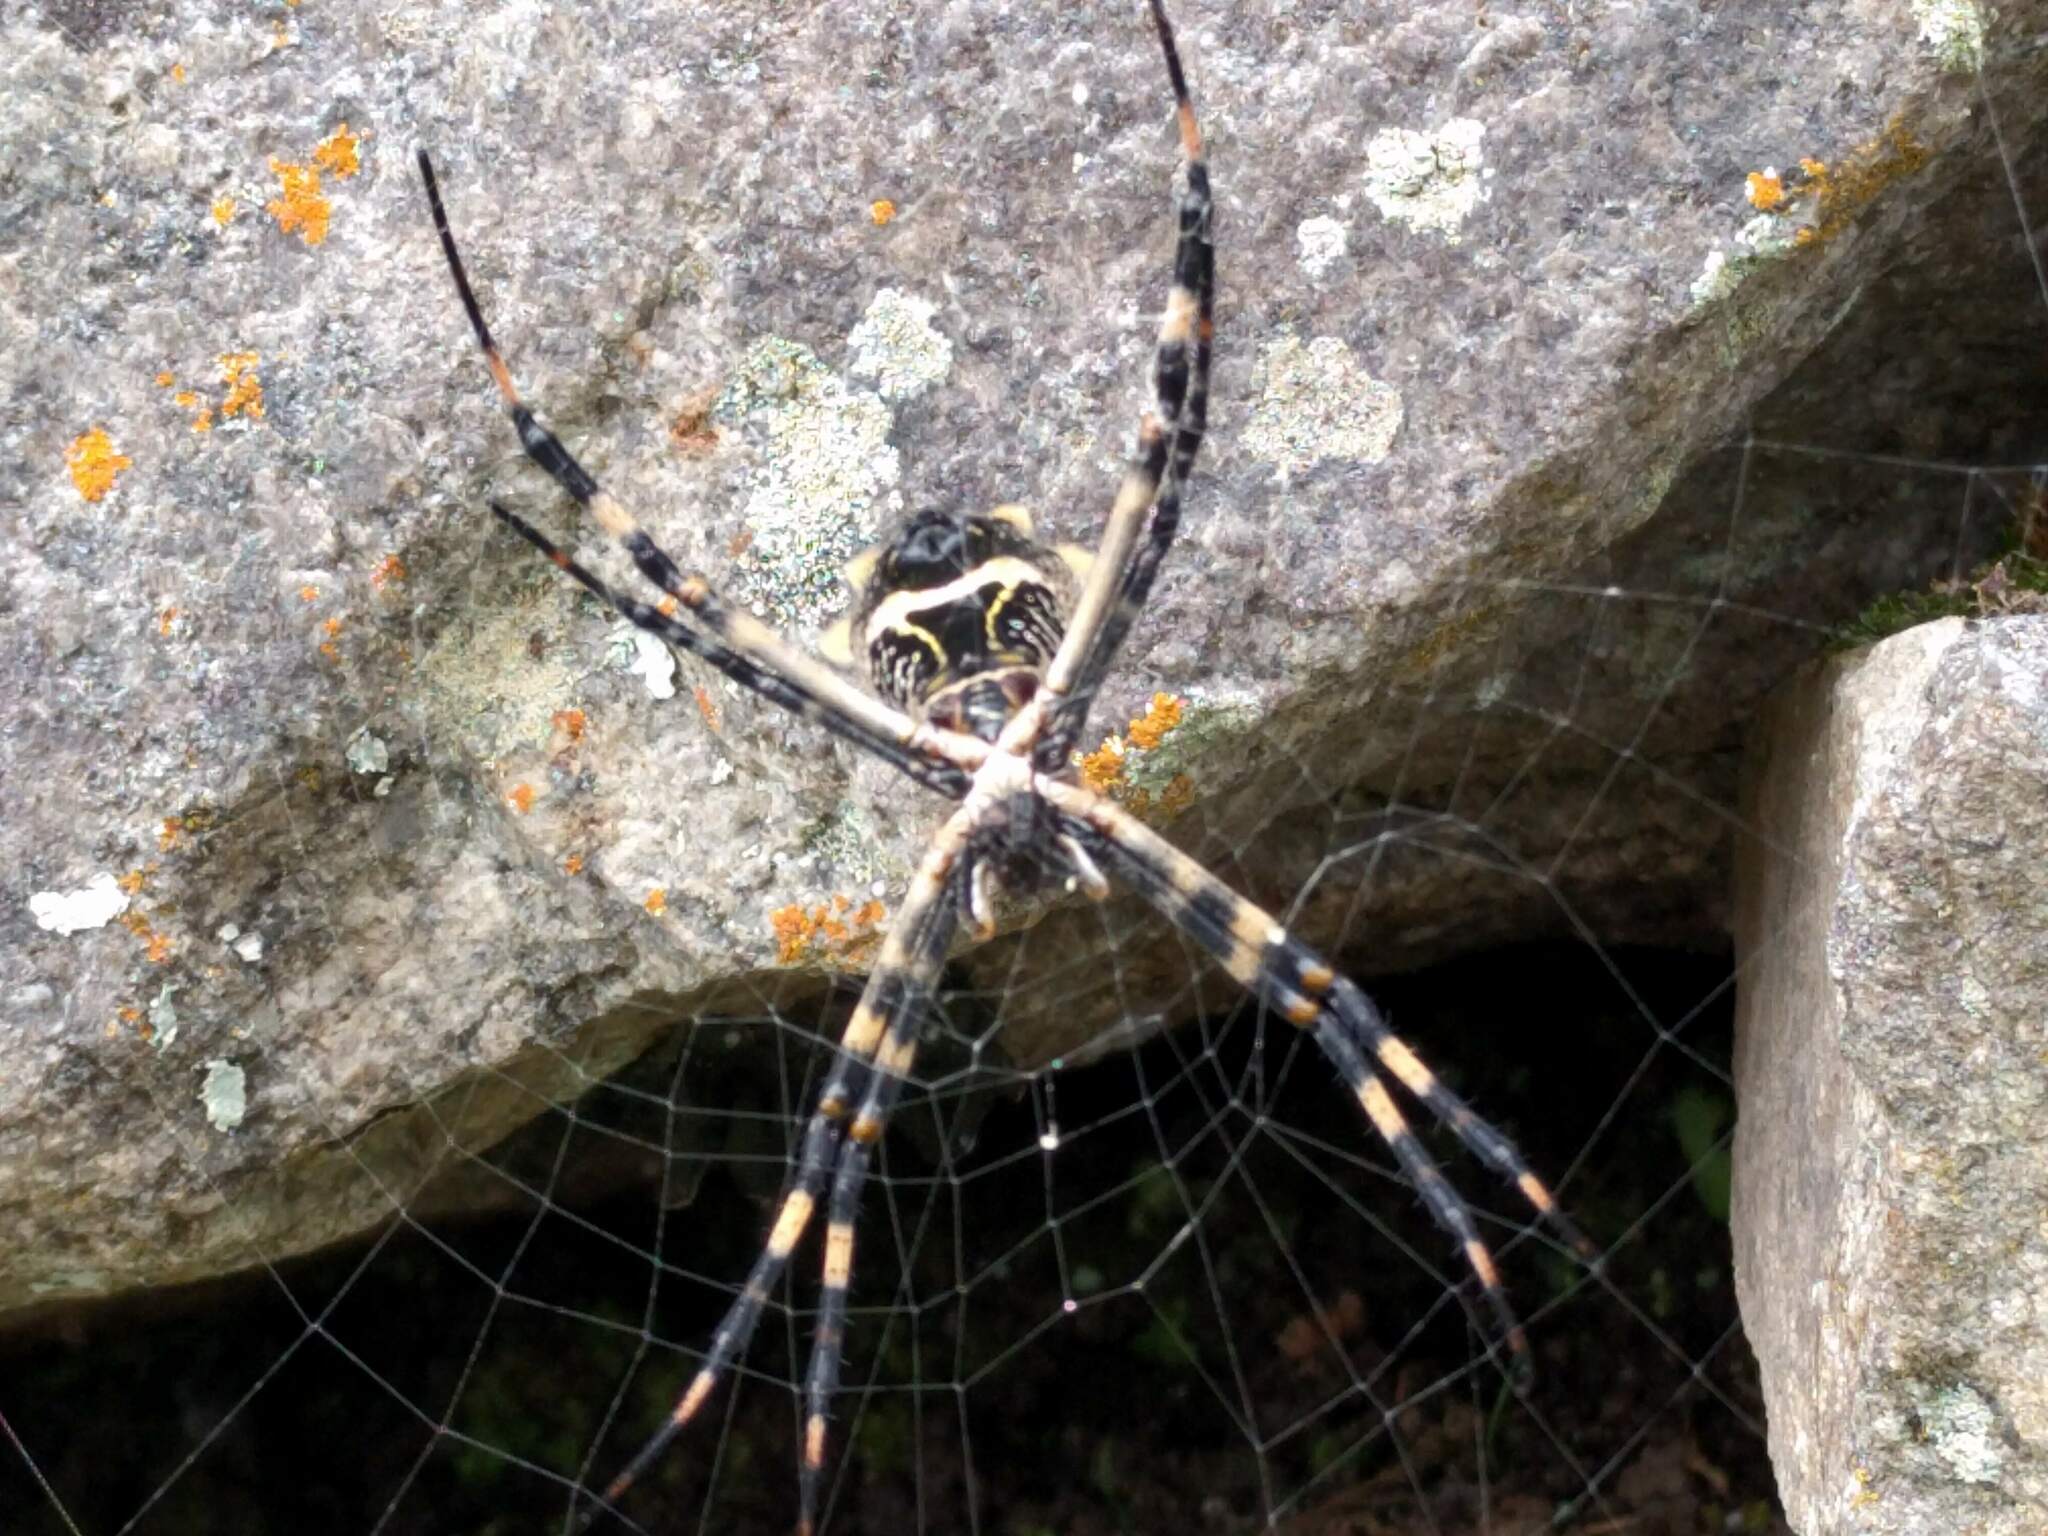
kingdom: Animalia
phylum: Arthropoda
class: Arachnida
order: Araneae
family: Araneidae
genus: Argiope
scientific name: Argiope argentata
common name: Orb weavers
